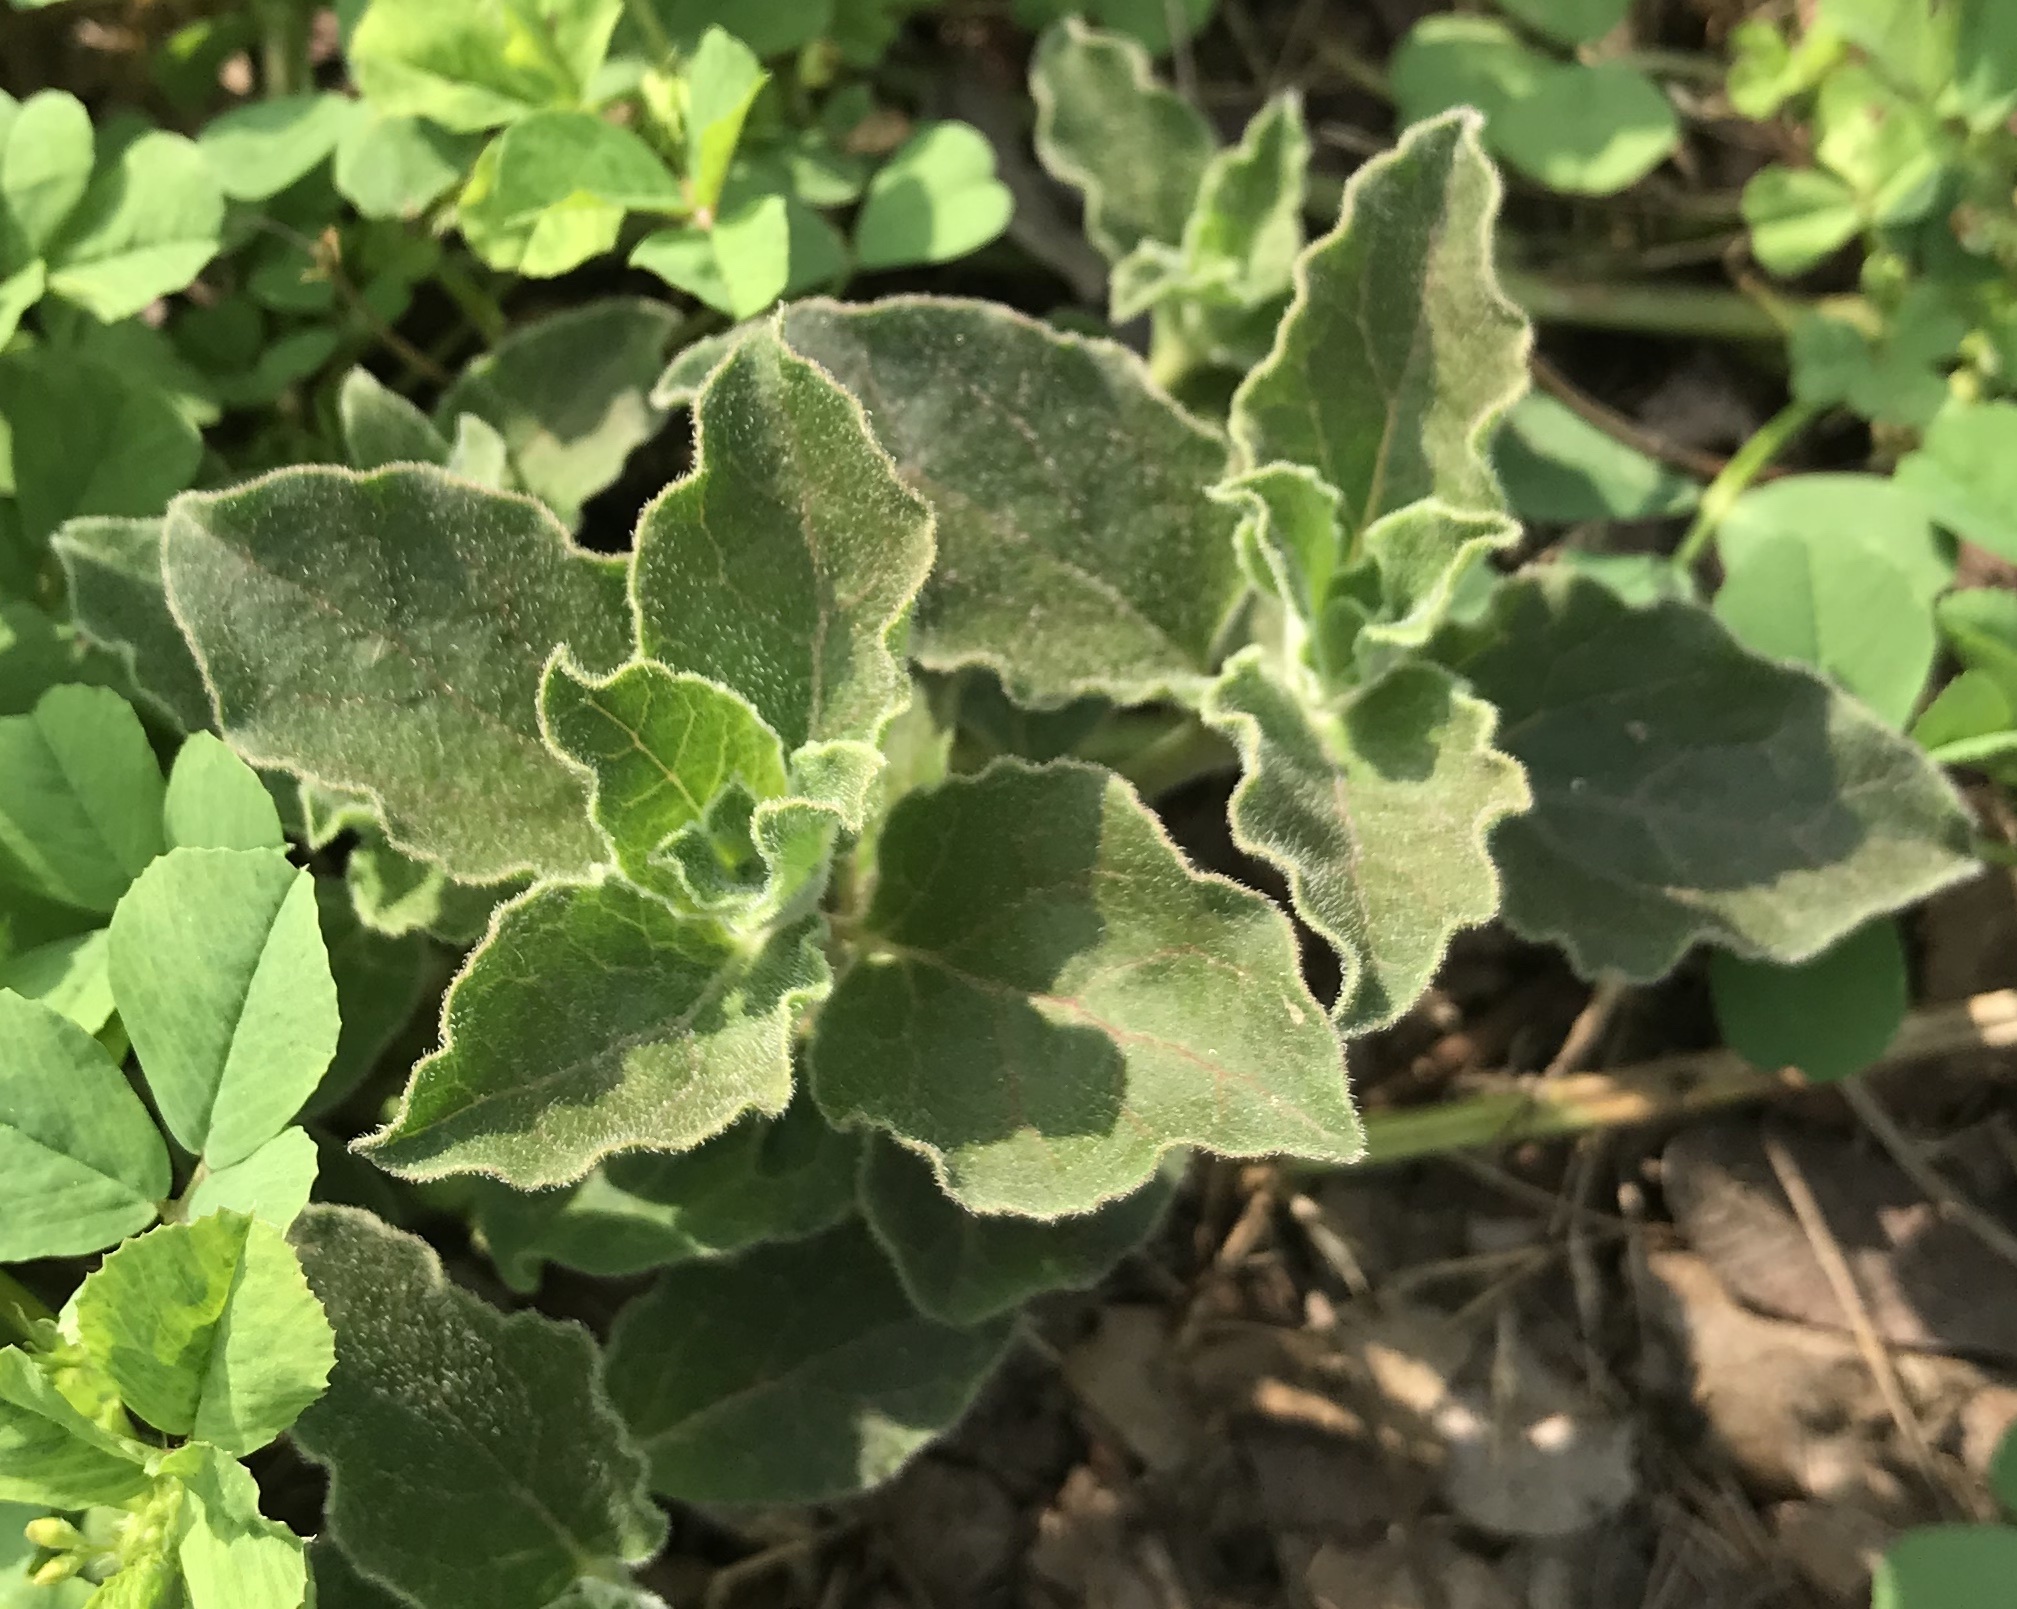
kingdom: Plantae
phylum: Tracheophyta
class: Magnoliopsida
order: Gentianales
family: Apocynaceae
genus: Asclepias
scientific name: Asclepias oenotheroides
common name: Zizotes milkweed
